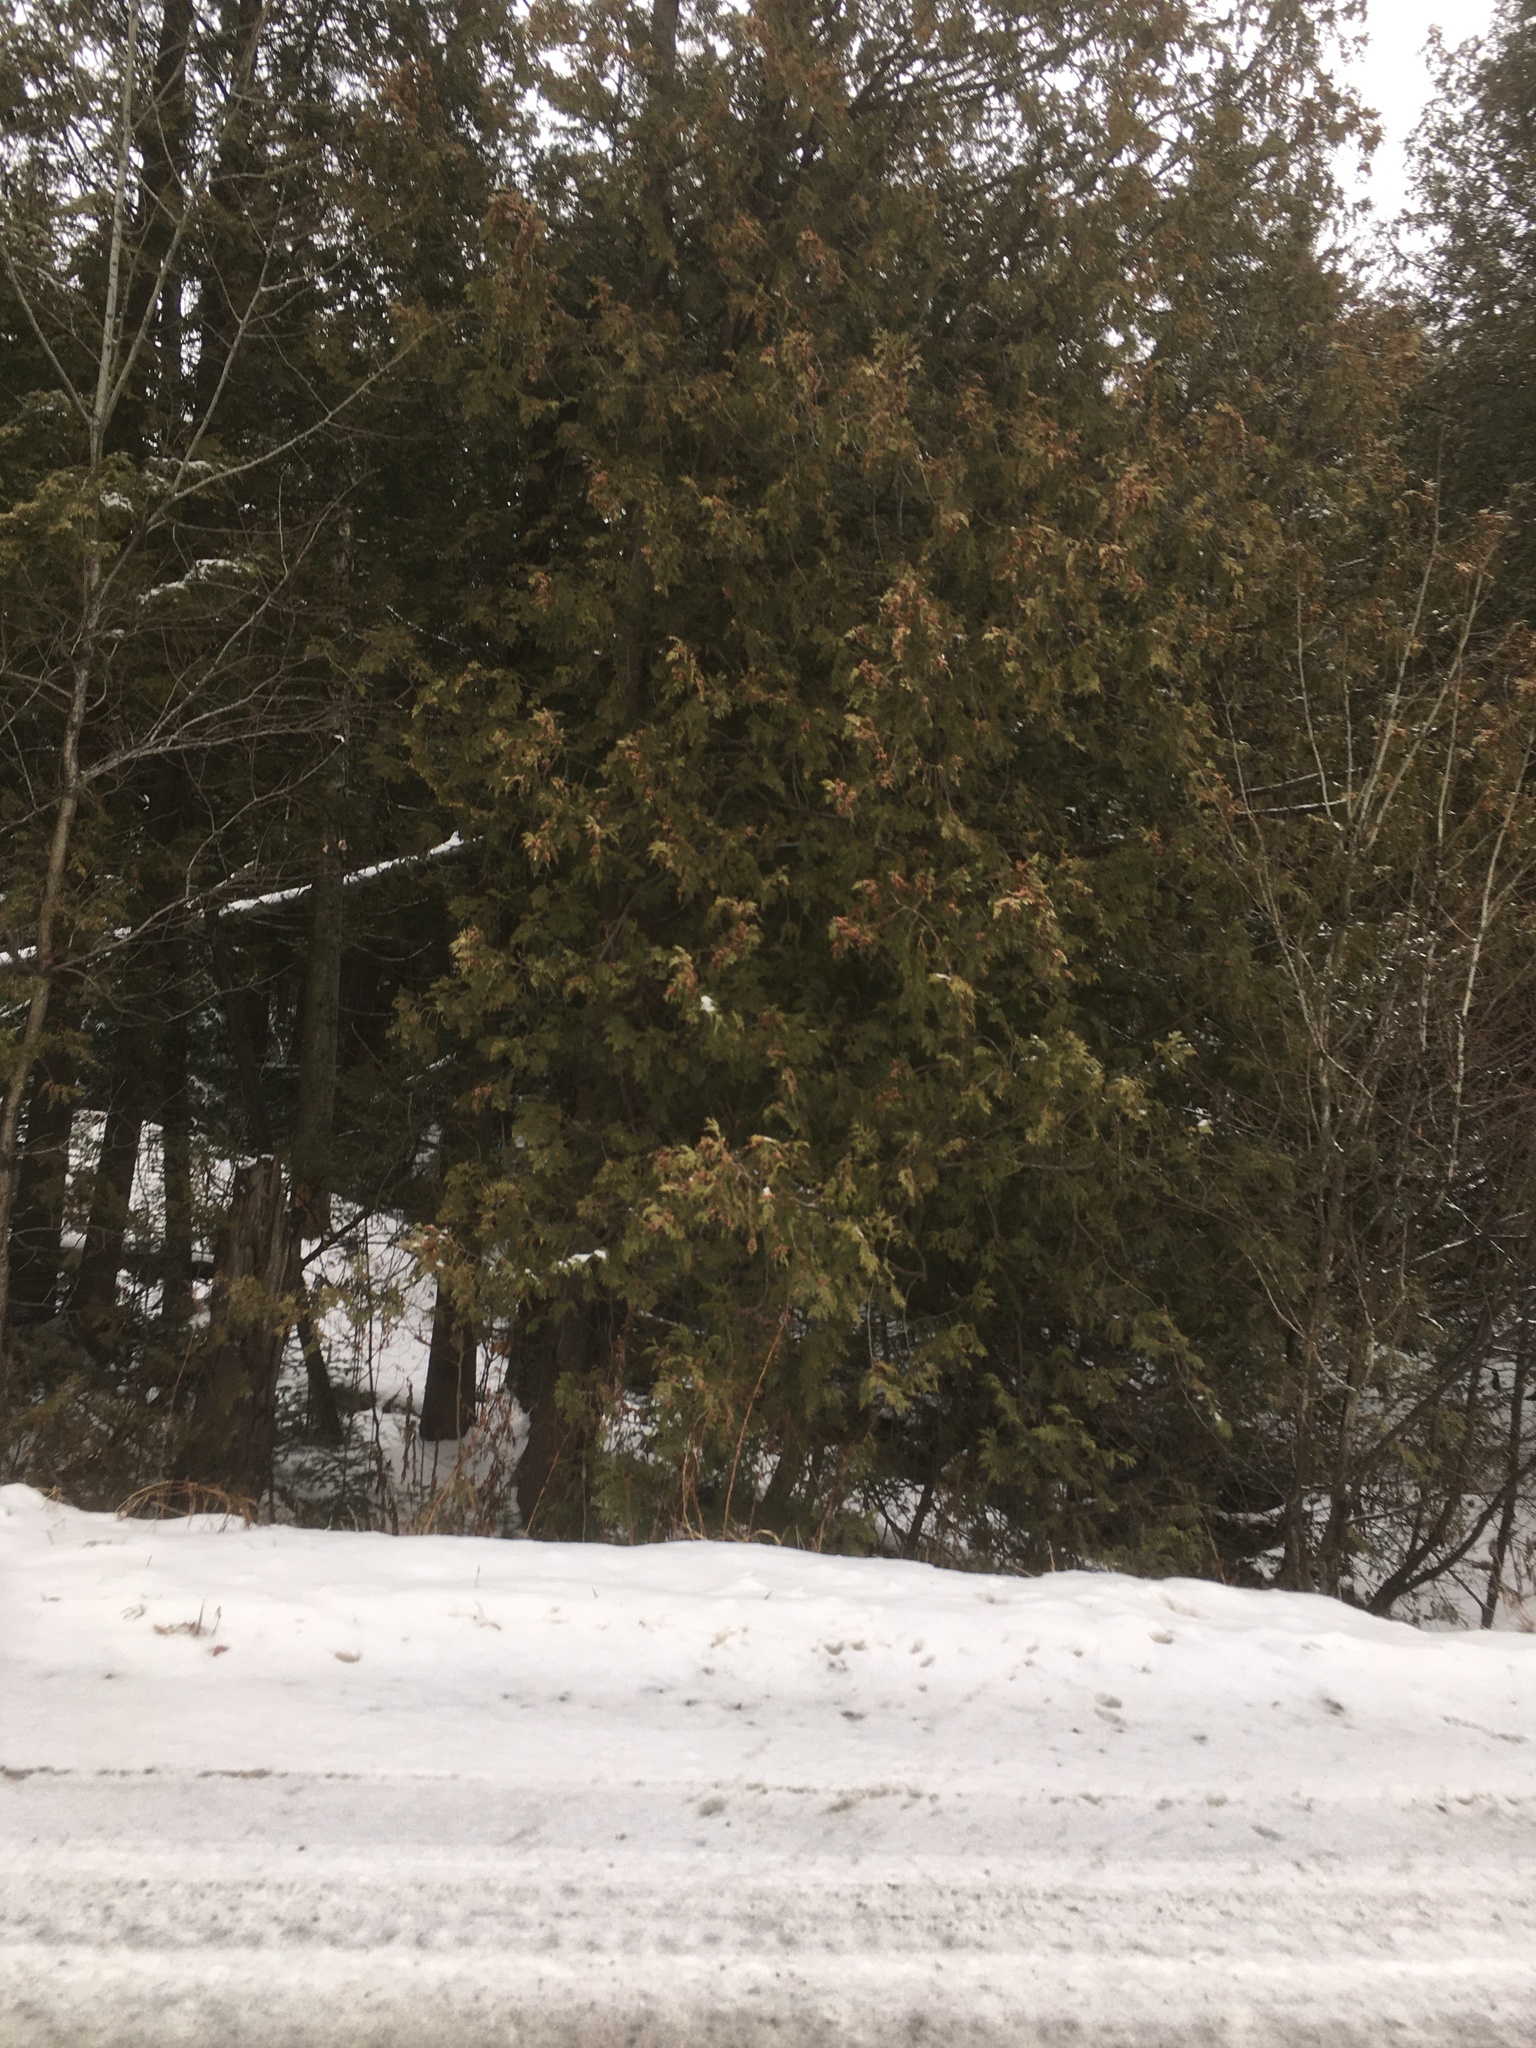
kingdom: Plantae
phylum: Tracheophyta
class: Pinopsida
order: Pinales
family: Cupressaceae
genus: Thuja
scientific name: Thuja occidentalis
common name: Northern white-cedar
